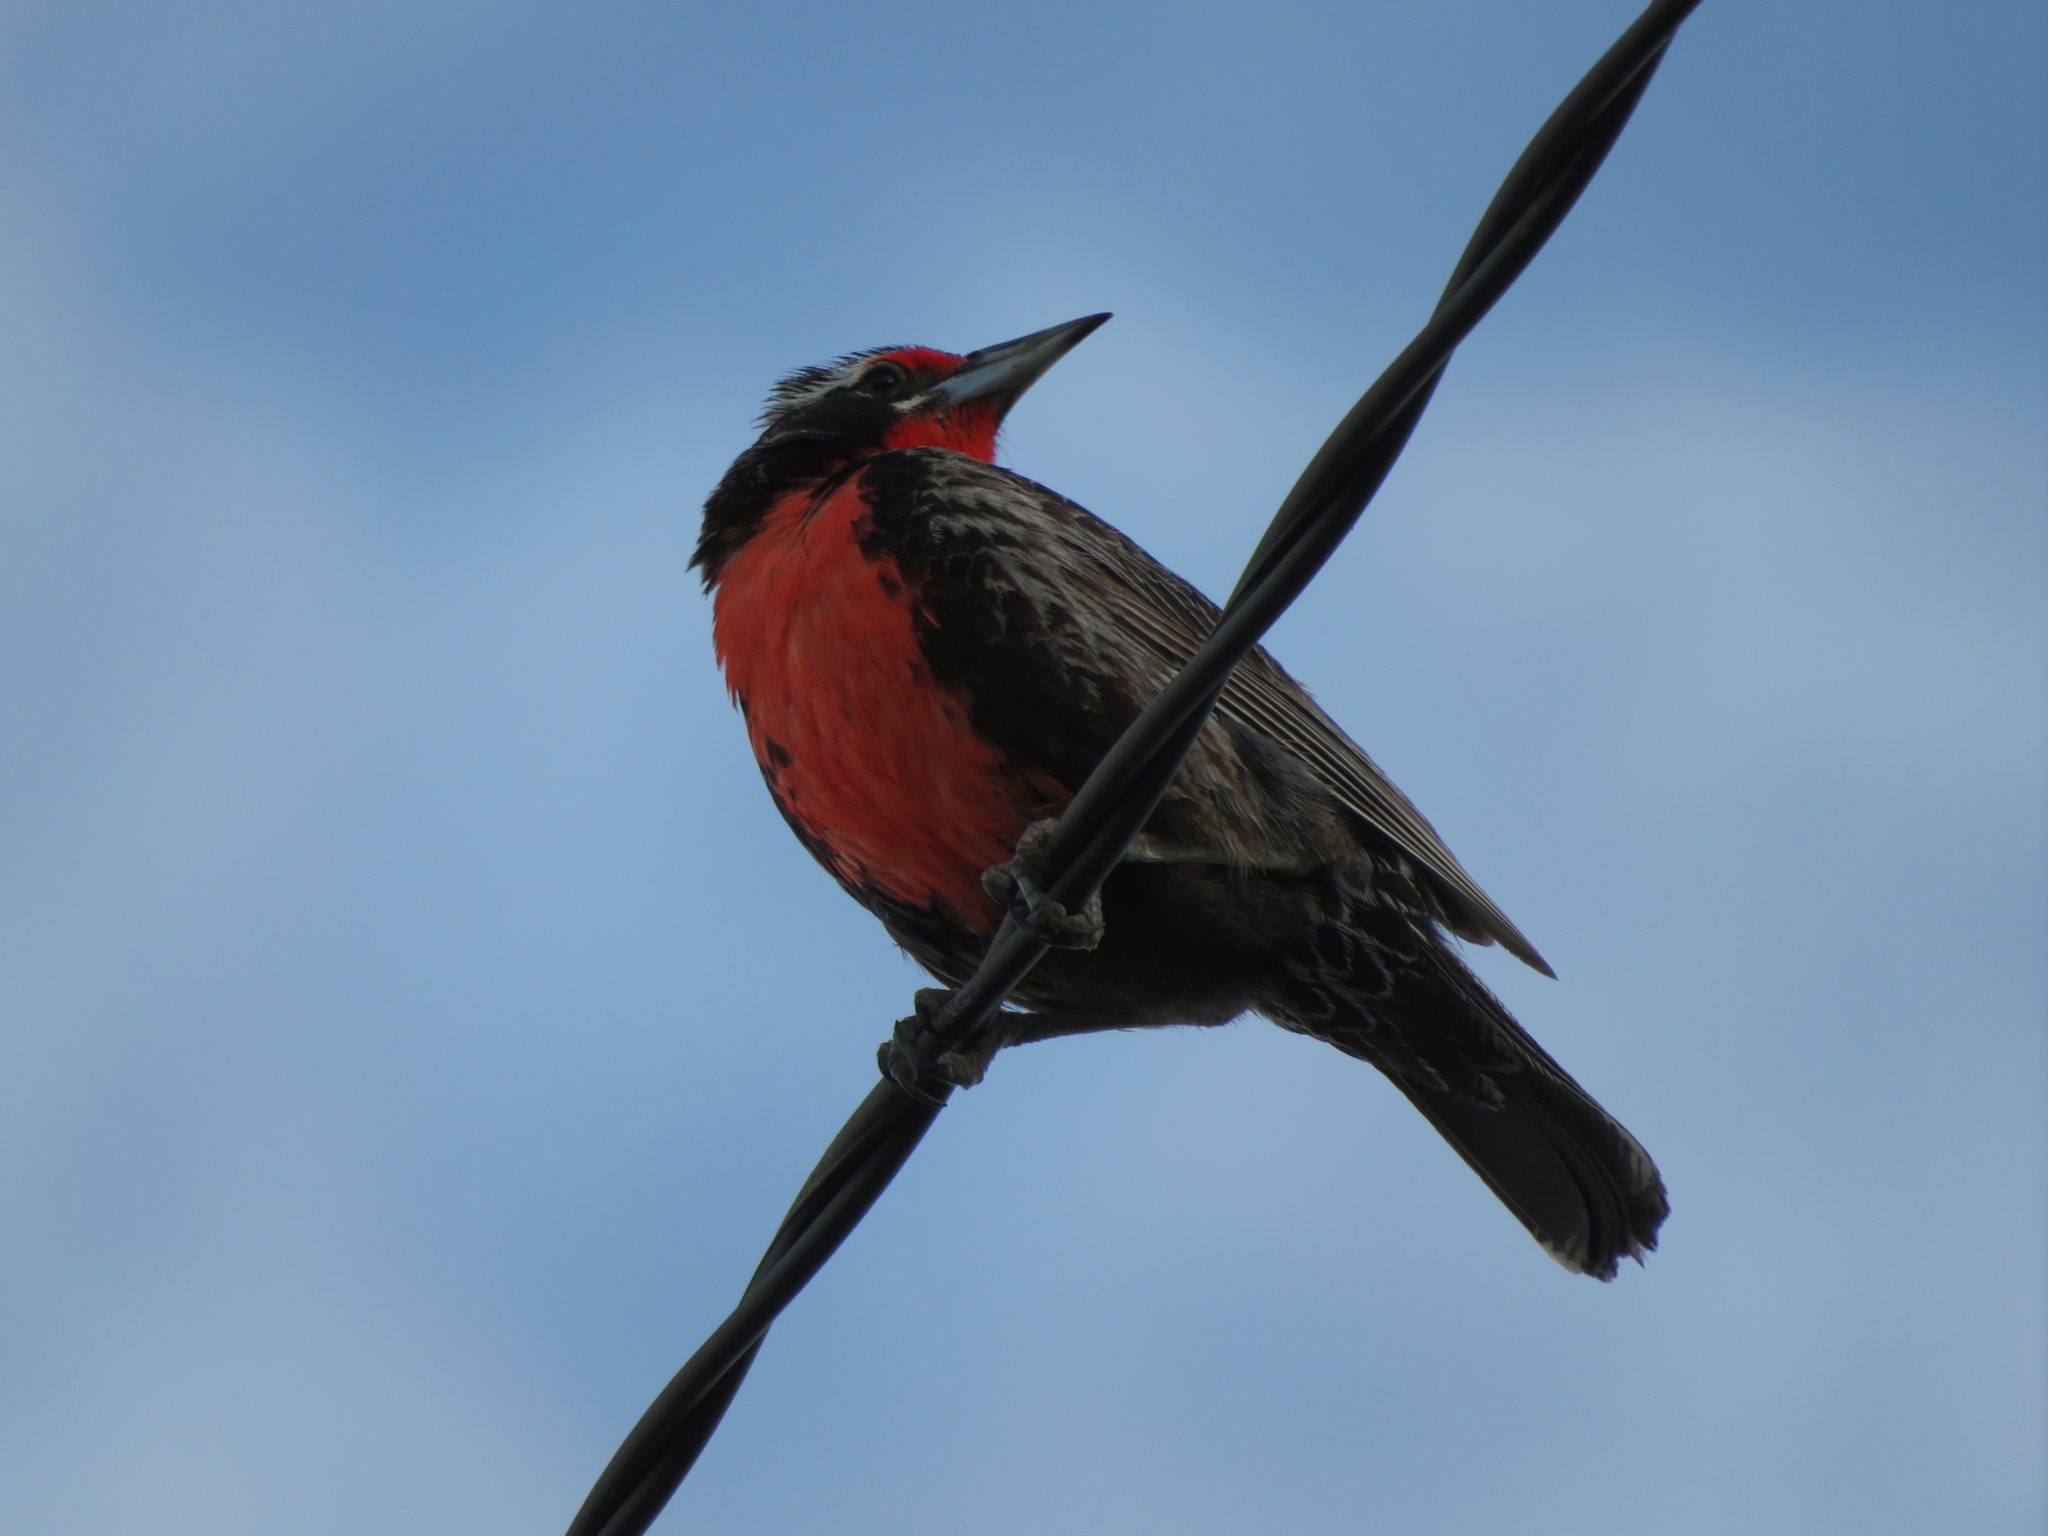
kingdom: Animalia
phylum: Chordata
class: Aves
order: Passeriformes
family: Icteridae
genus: Sturnella
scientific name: Sturnella loyca
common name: Long-tailed meadowlark
